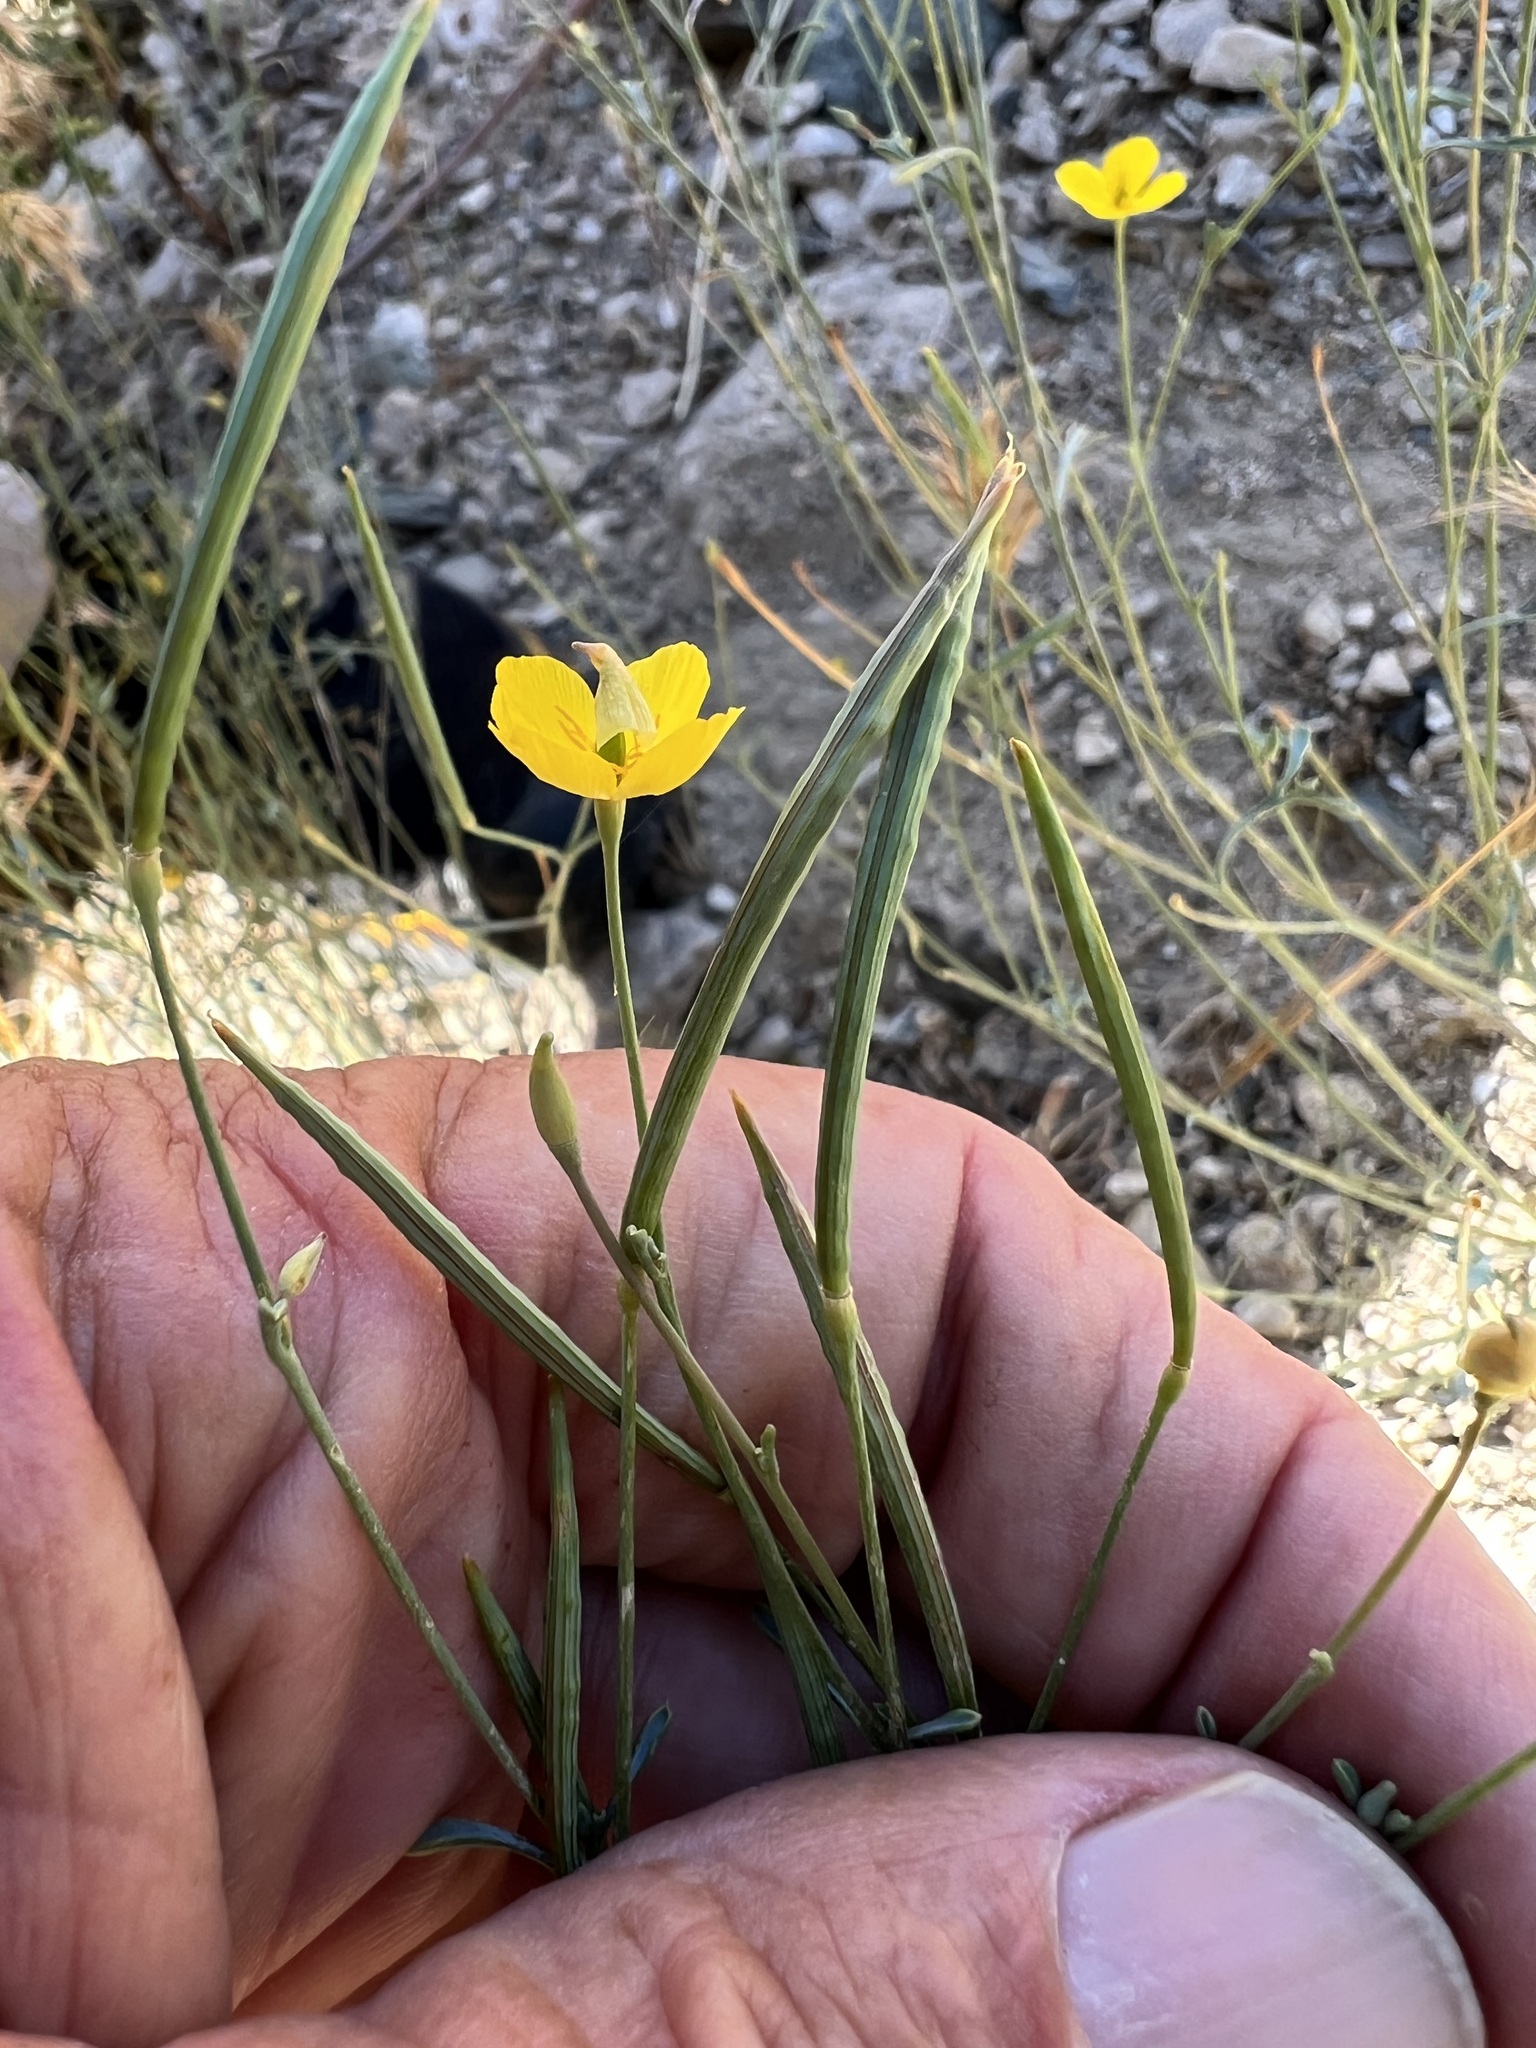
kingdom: Plantae
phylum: Tracheophyta
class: Magnoliopsida
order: Ranunculales
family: Papaveraceae
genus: Eschscholzia
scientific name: Eschscholzia minutiflora
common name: Small-flower california-poppy
